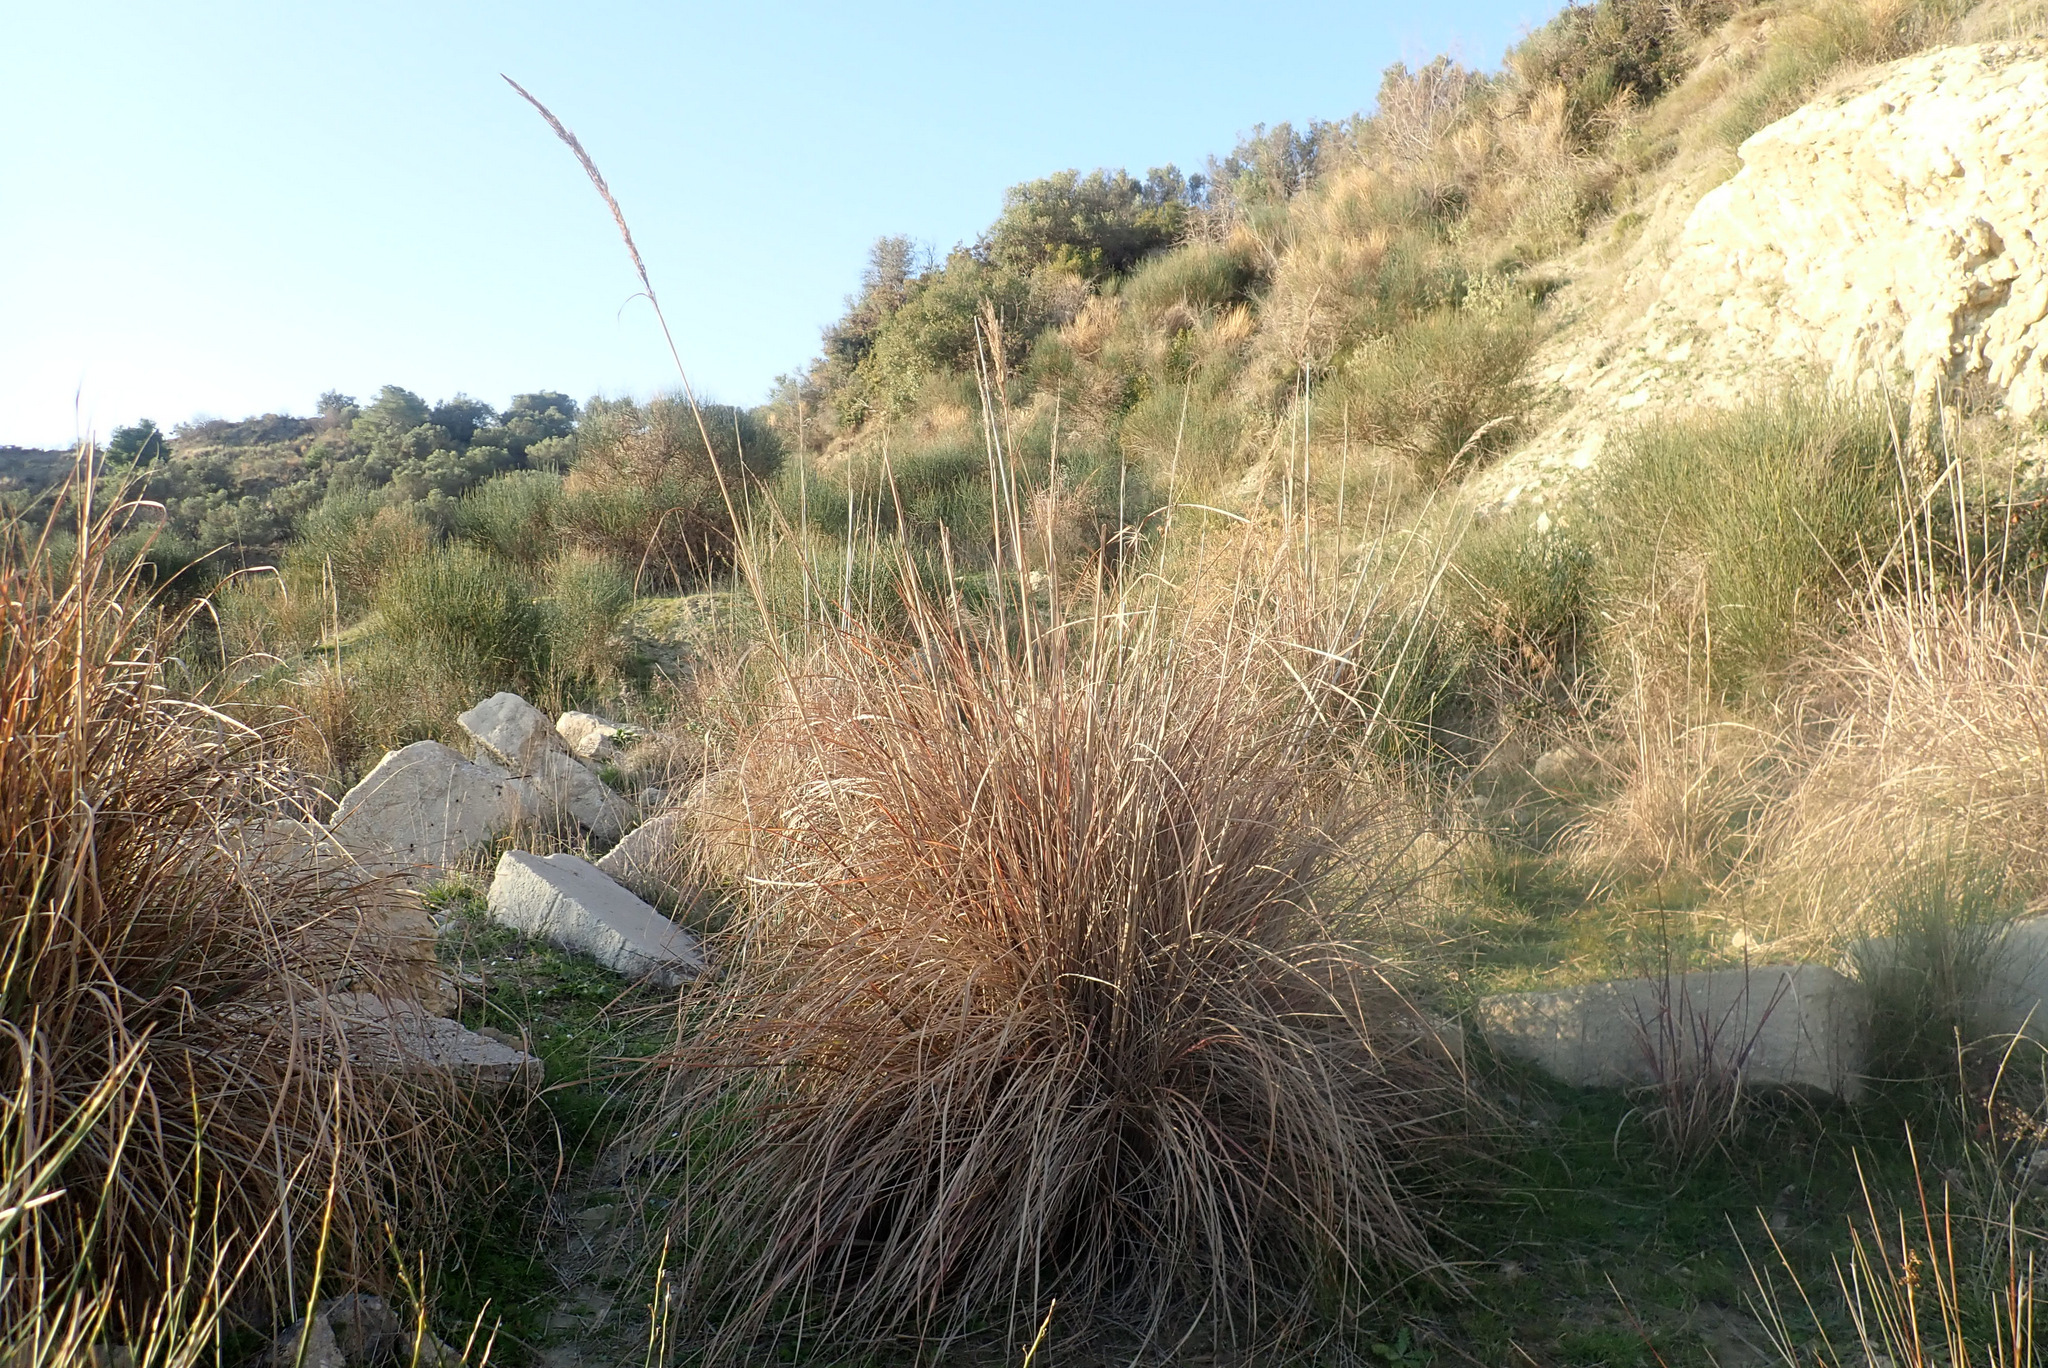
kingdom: Plantae
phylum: Tracheophyta
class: Liliopsida
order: Poales
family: Juncaceae
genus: Juncus
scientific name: Juncus acutus
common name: Sharp rush
